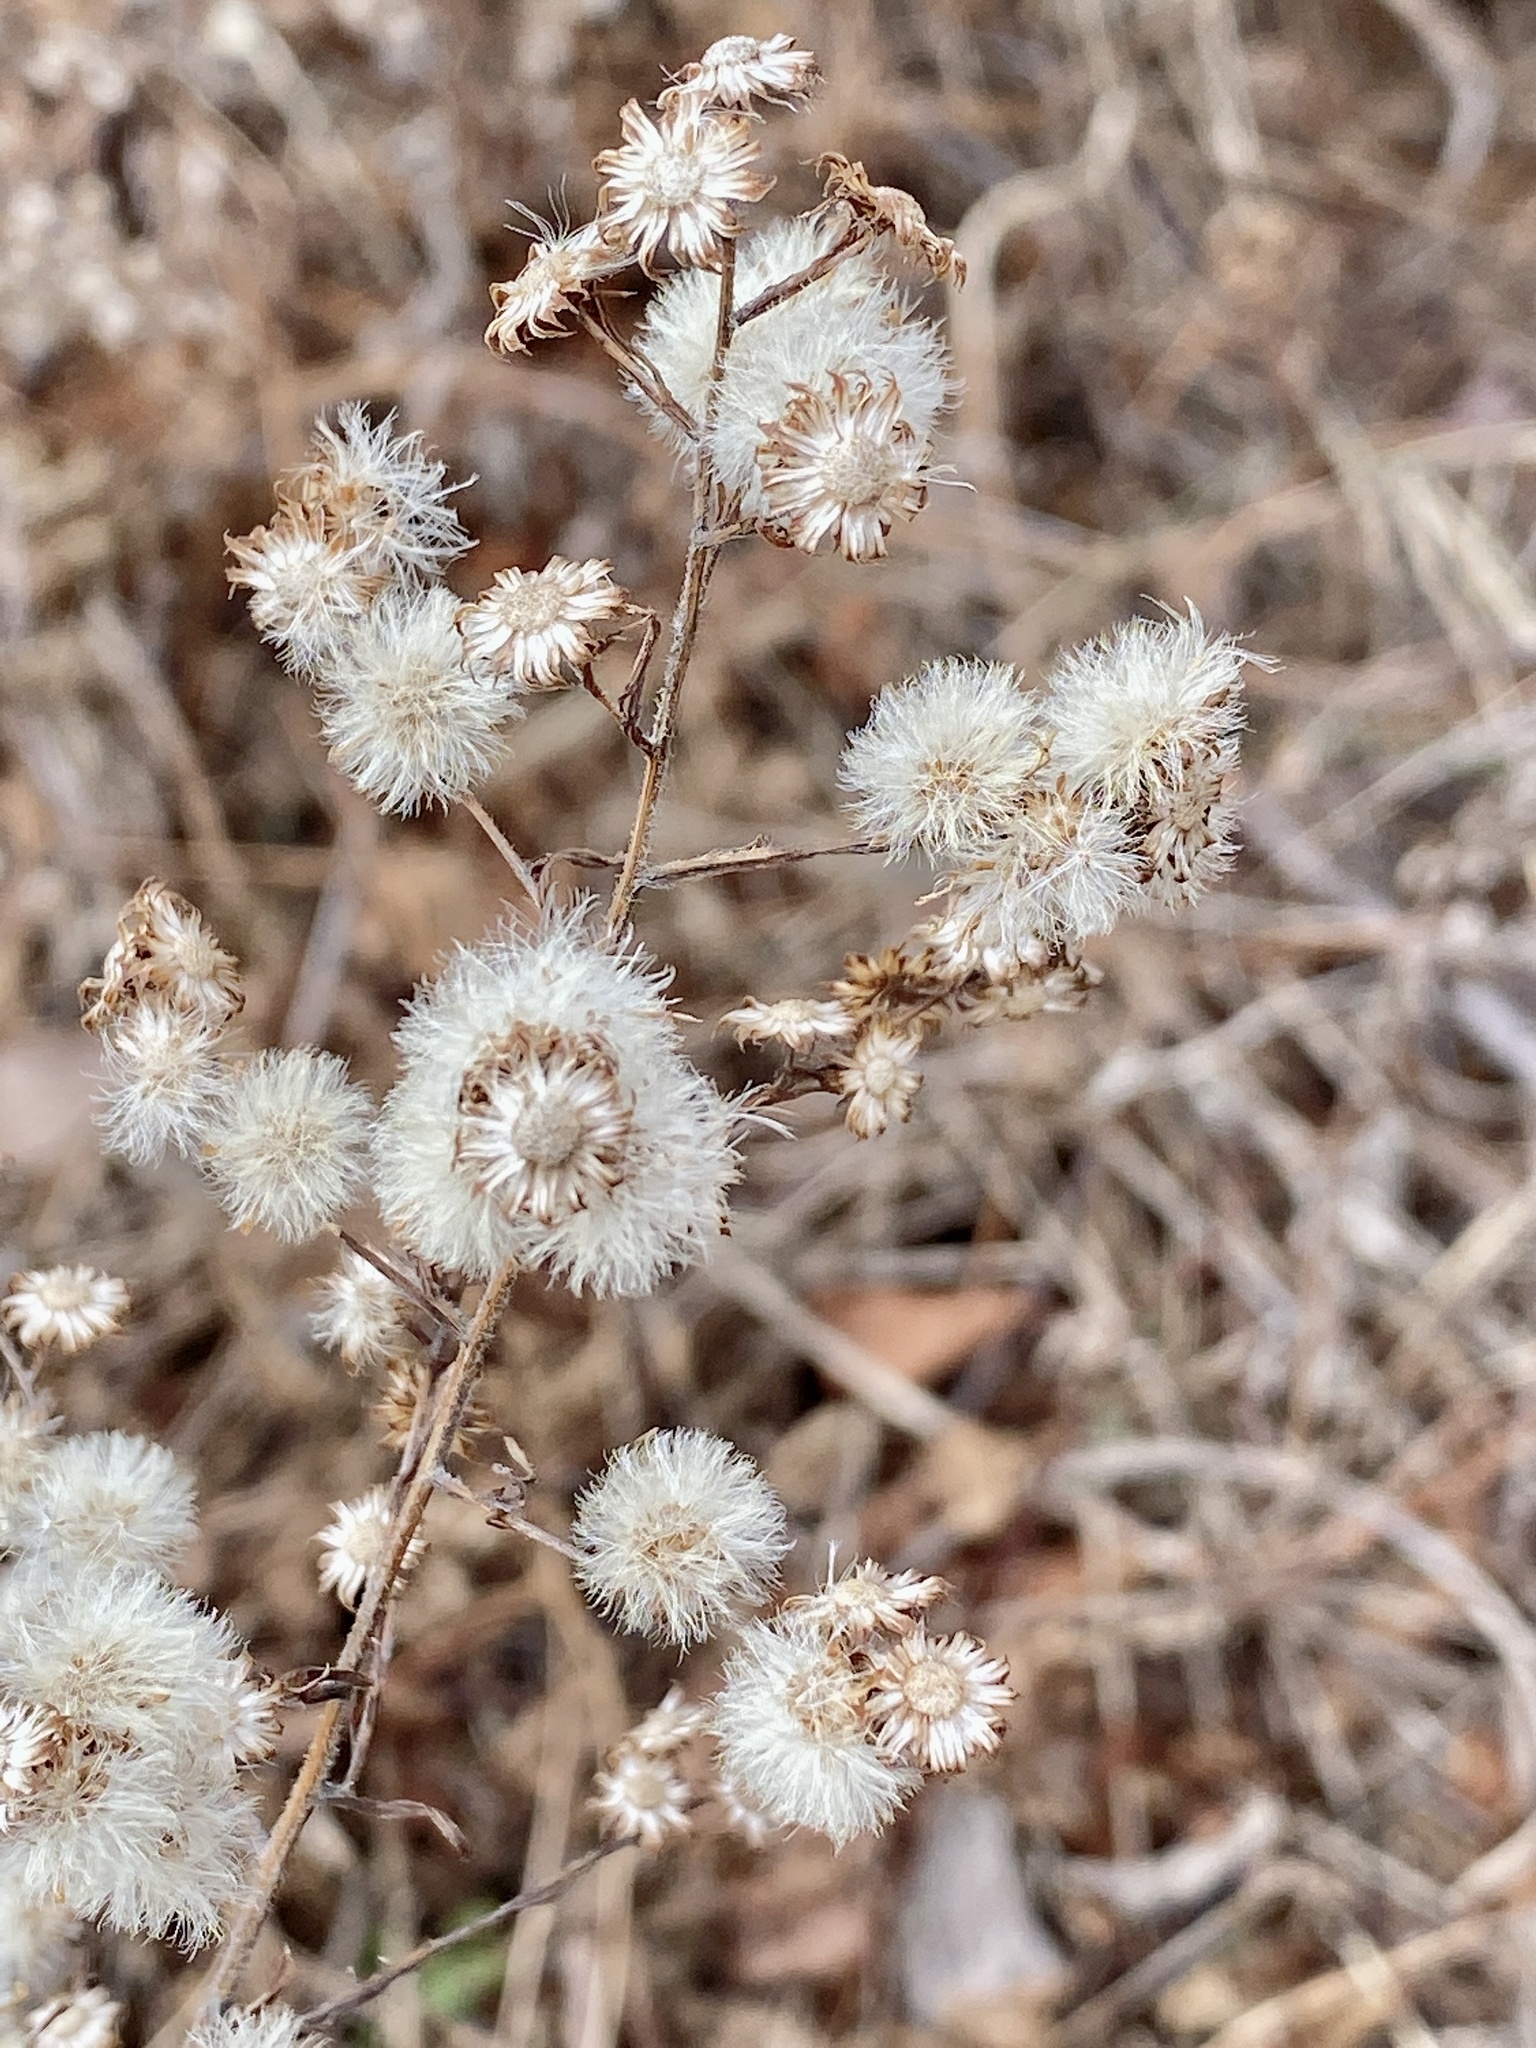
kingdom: Plantae
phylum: Tracheophyta
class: Magnoliopsida
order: Asterales
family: Asteraceae
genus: Symphyotrichum
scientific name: Symphyotrichum
